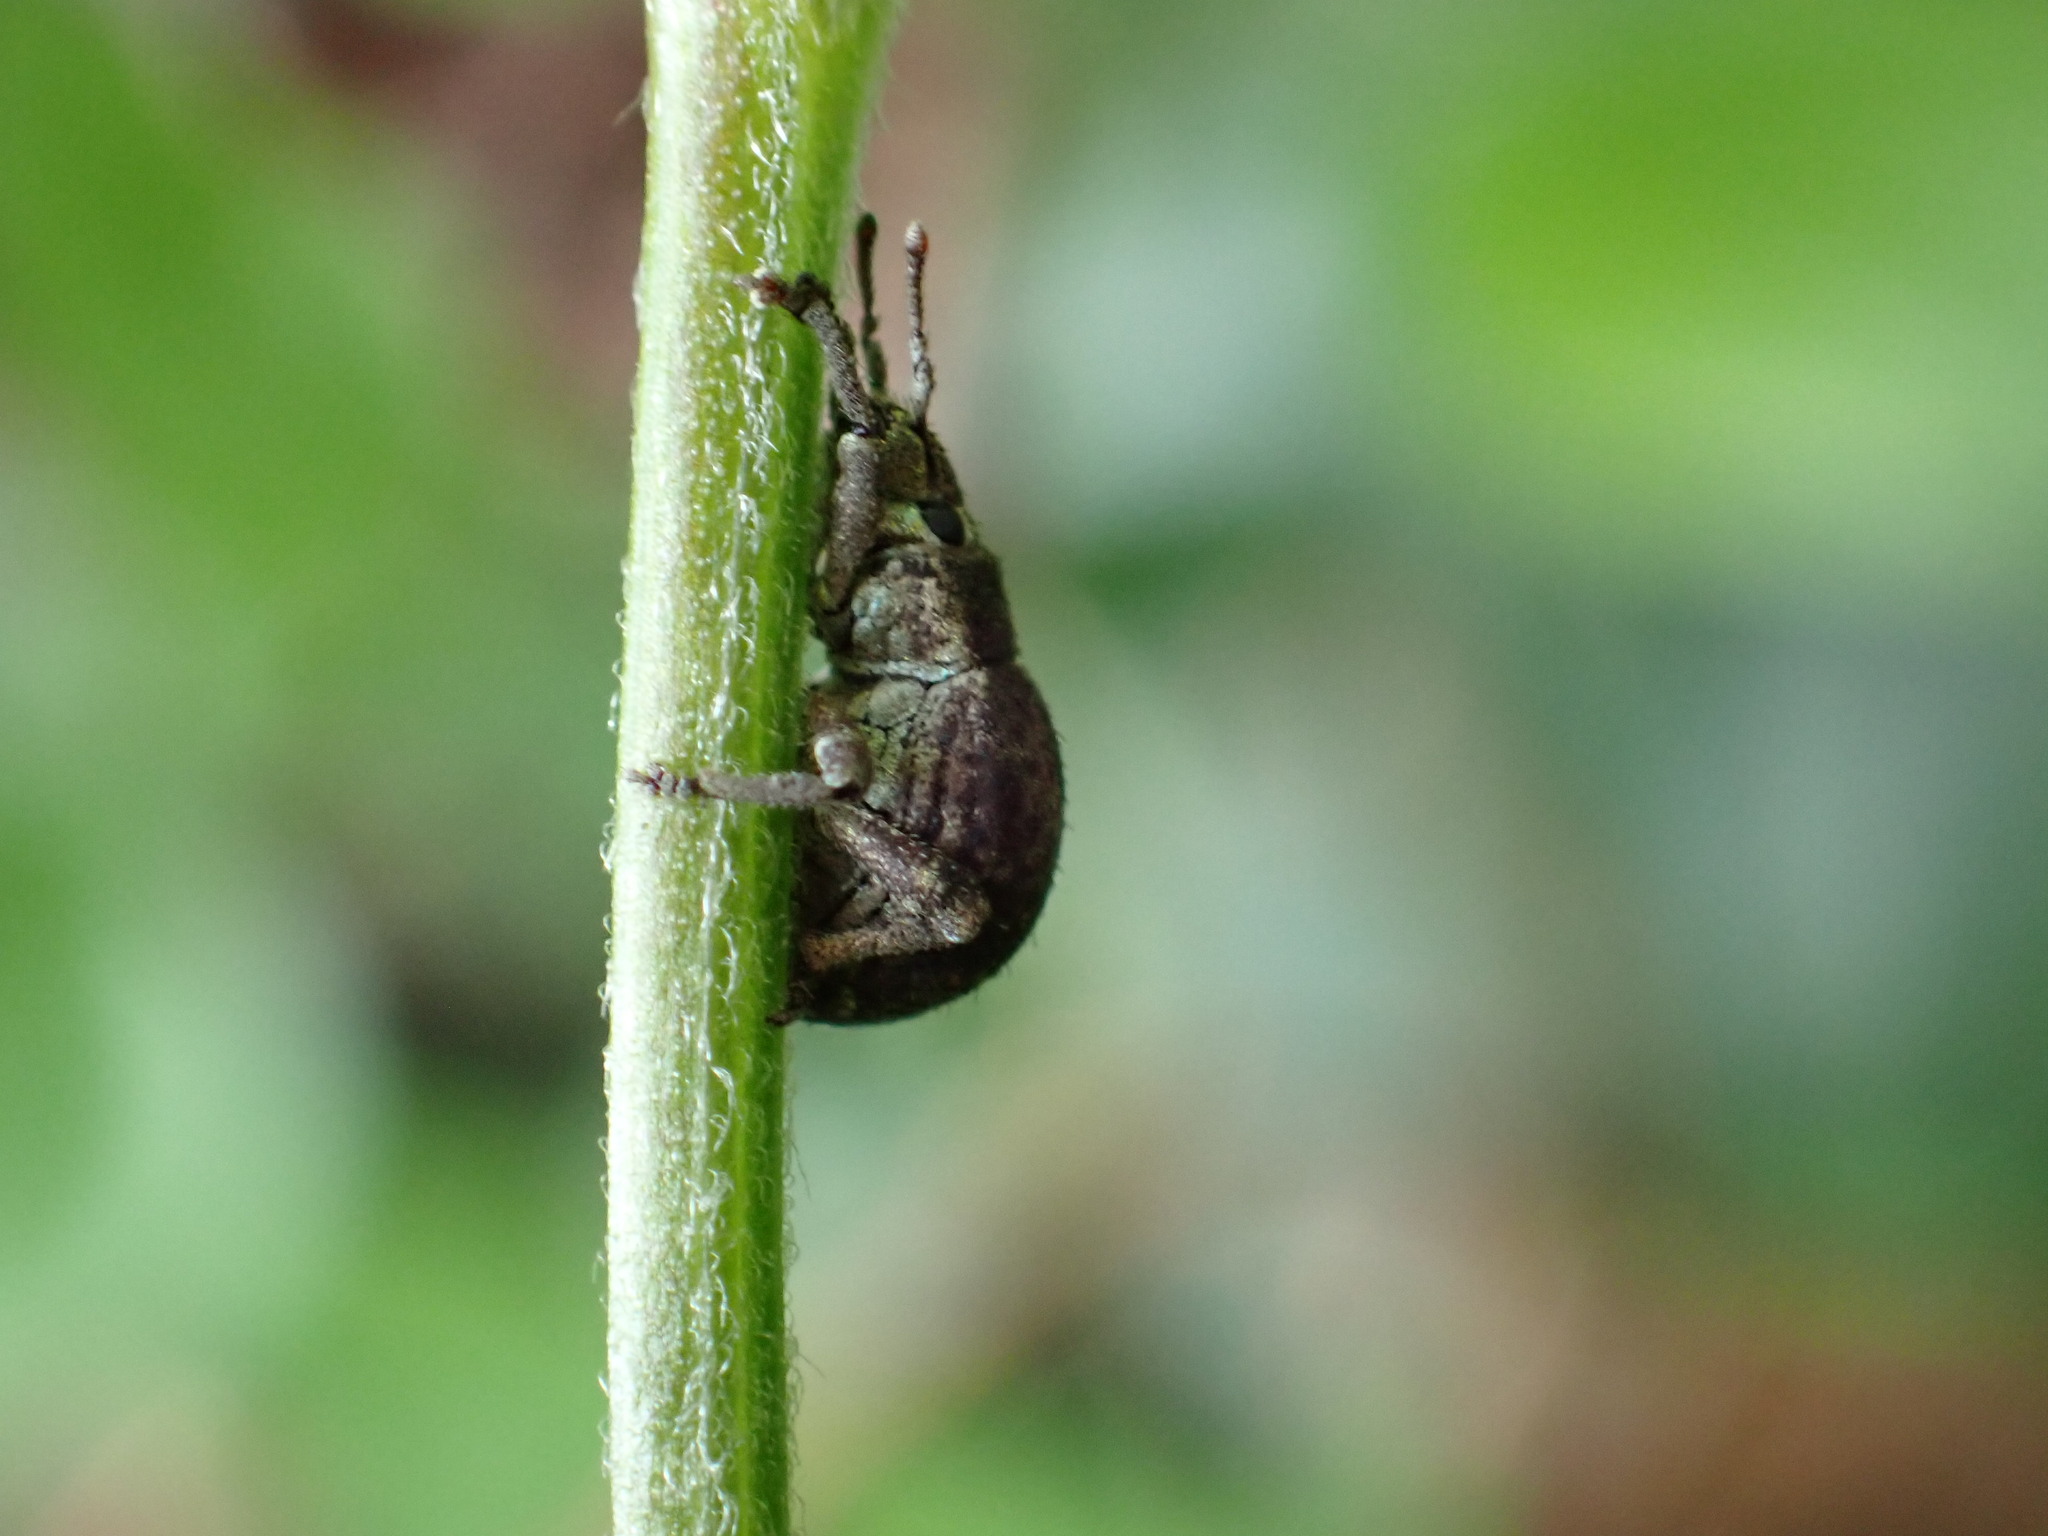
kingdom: Animalia
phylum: Arthropoda
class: Insecta
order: Coleoptera
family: Curculionidae
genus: Pseudocneorhinus
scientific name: Pseudocneorhinus bifasciatus
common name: Two-banded japanese weevil
